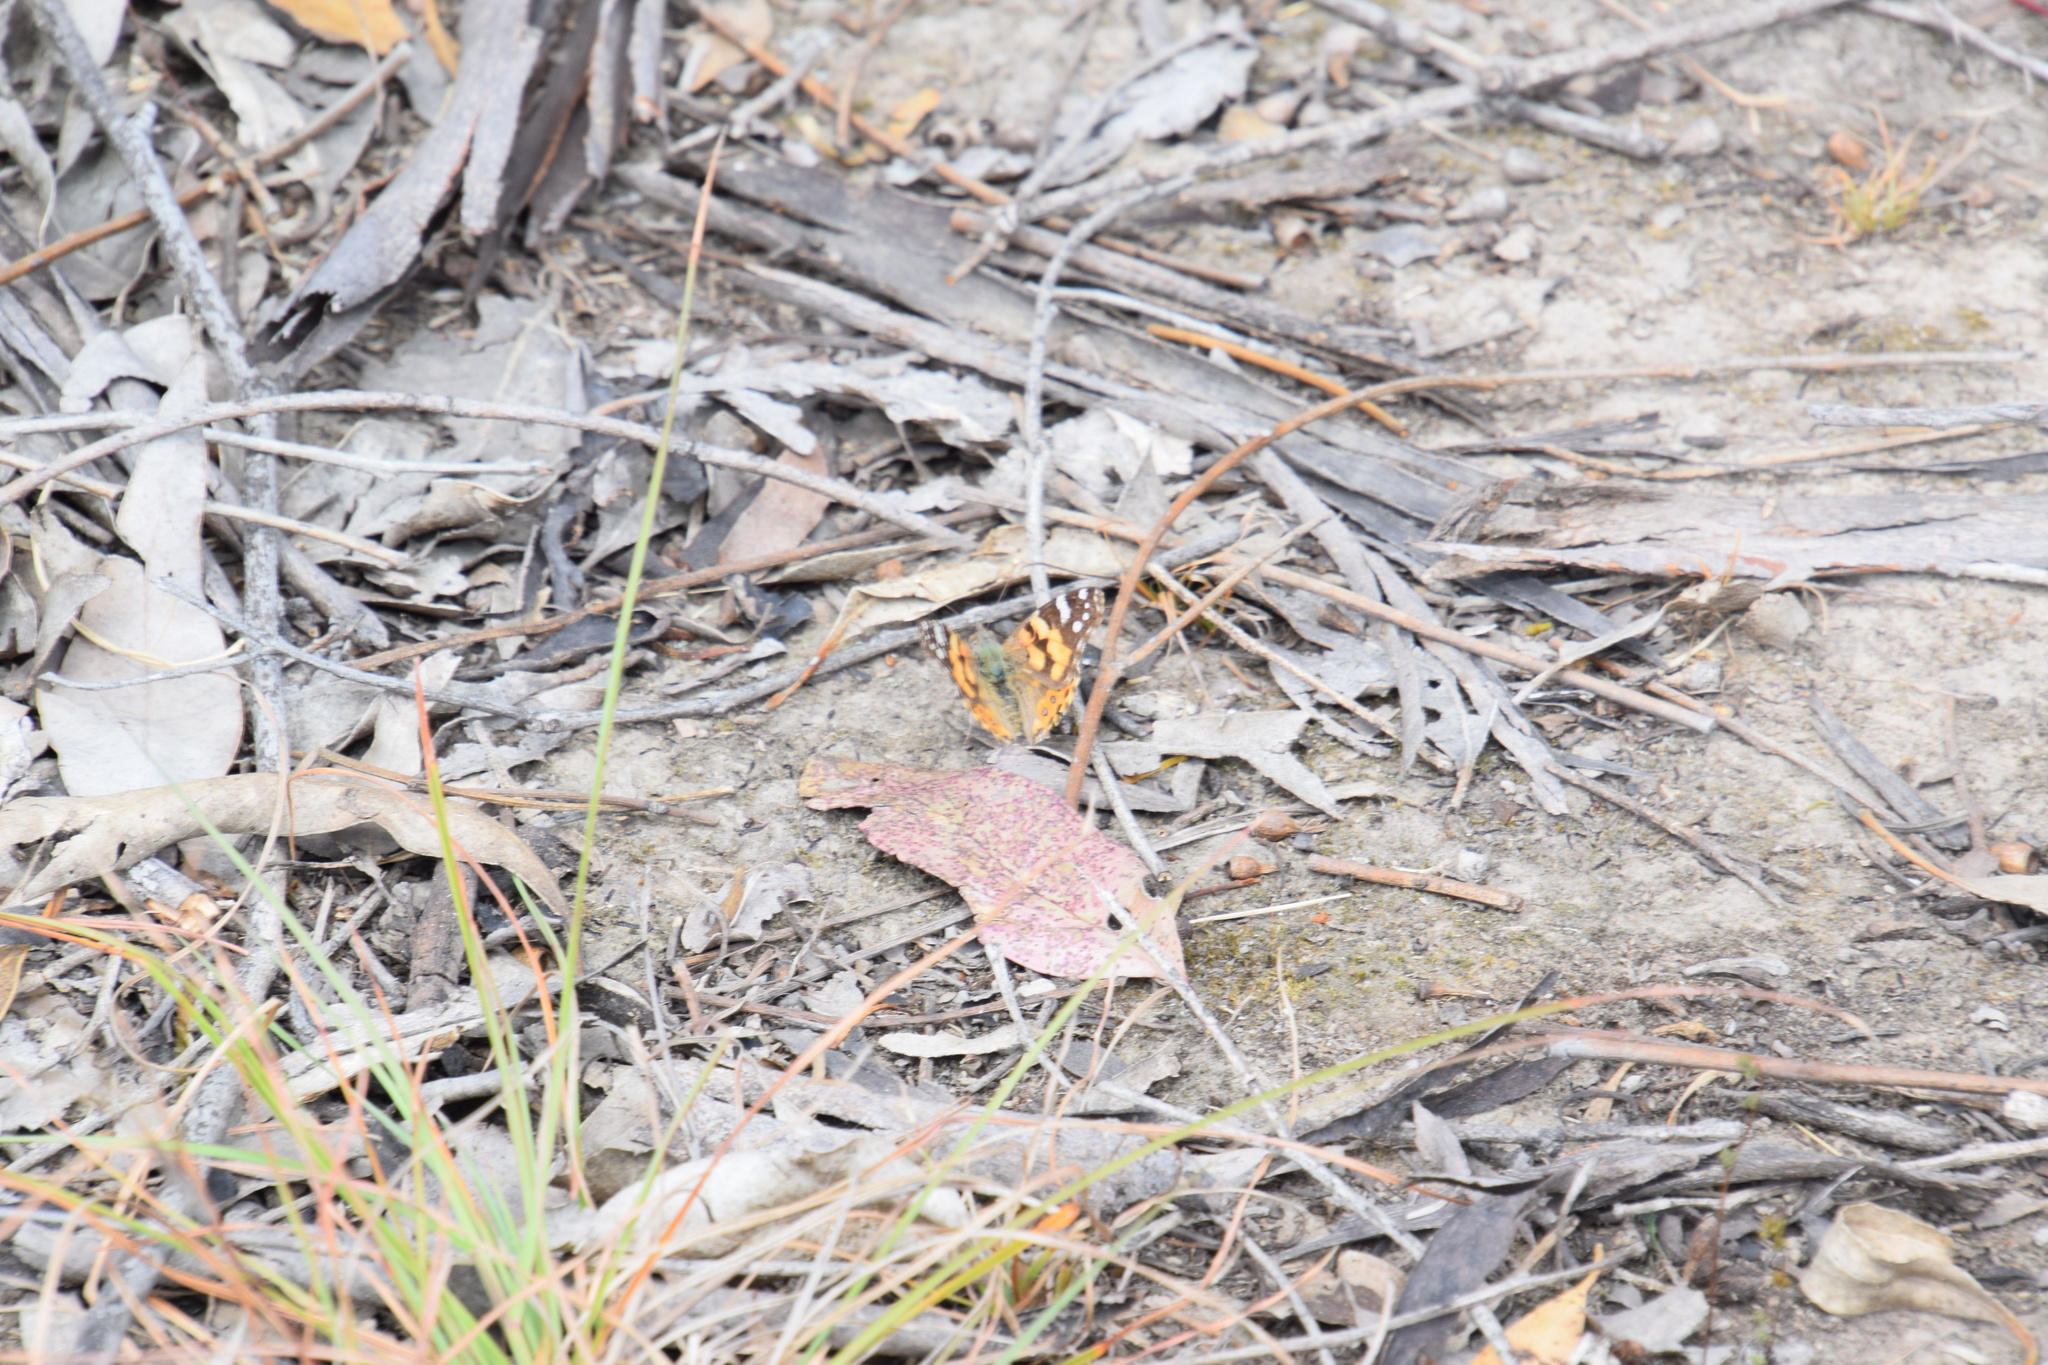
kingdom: Animalia
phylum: Arthropoda
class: Insecta
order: Lepidoptera
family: Nymphalidae
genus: Vanessa
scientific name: Vanessa kershawi
